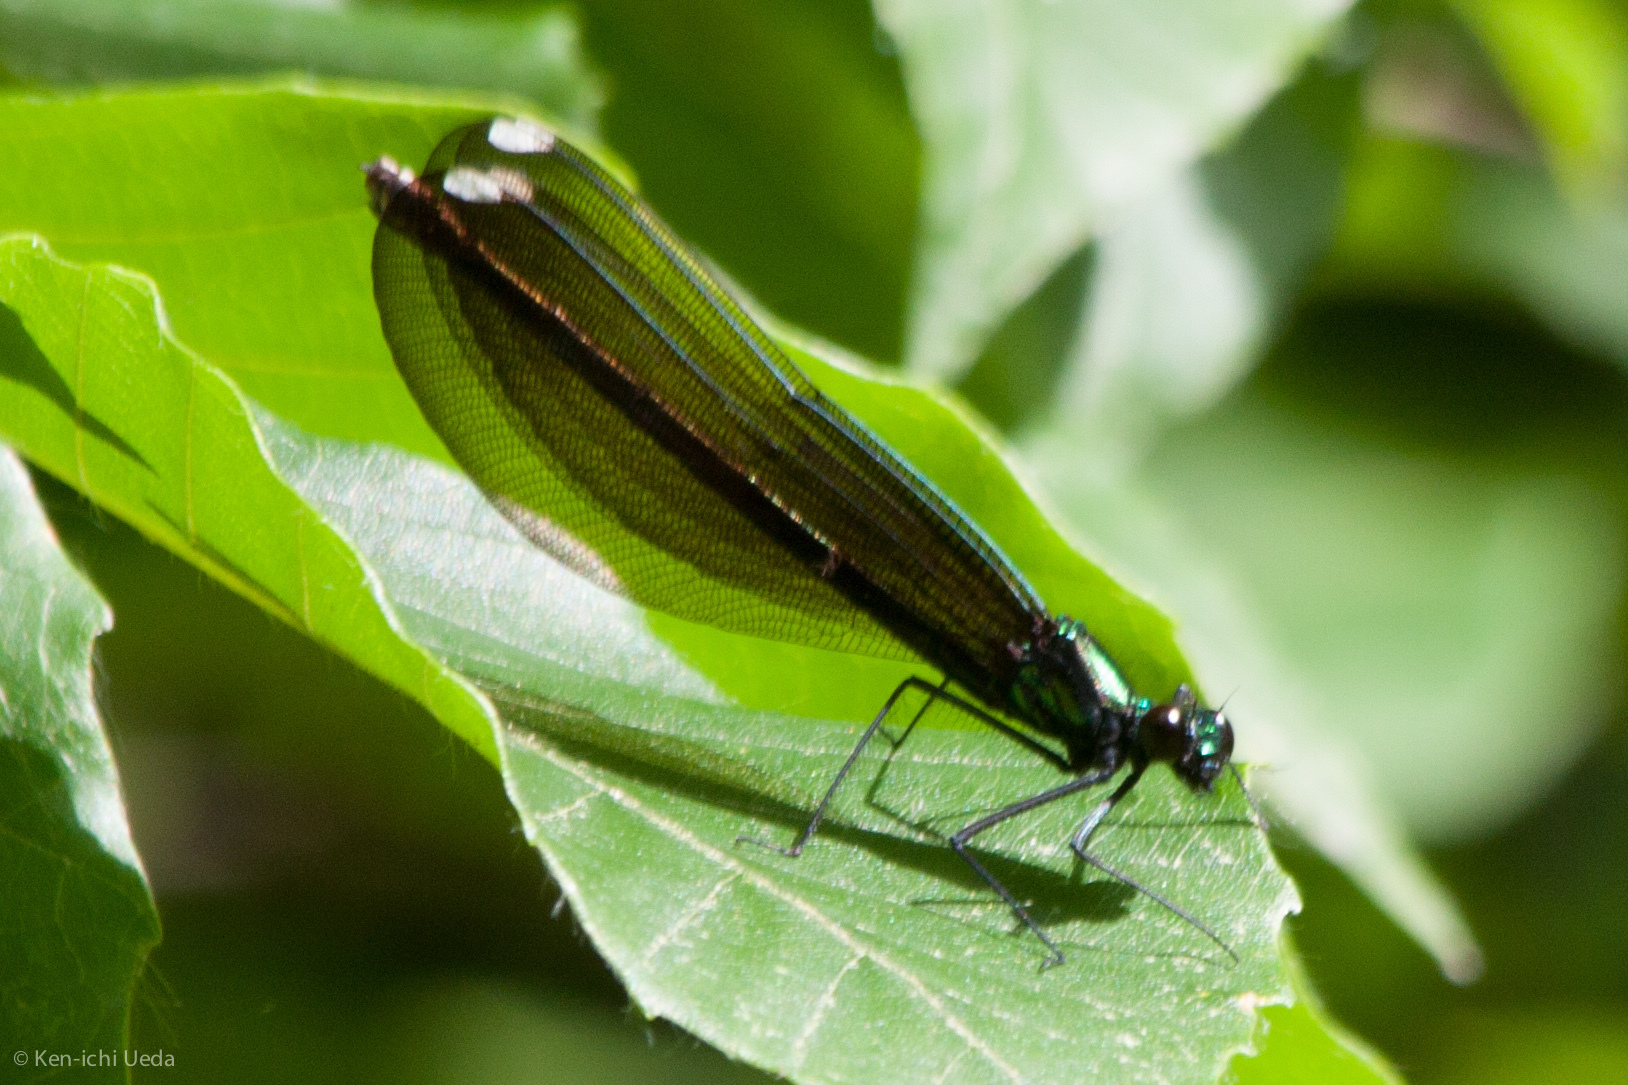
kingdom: Animalia
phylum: Arthropoda
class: Insecta
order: Odonata
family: Calopterygidae
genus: Calopteryx
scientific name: Calopteryx maculata
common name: Ebony jewelwing
